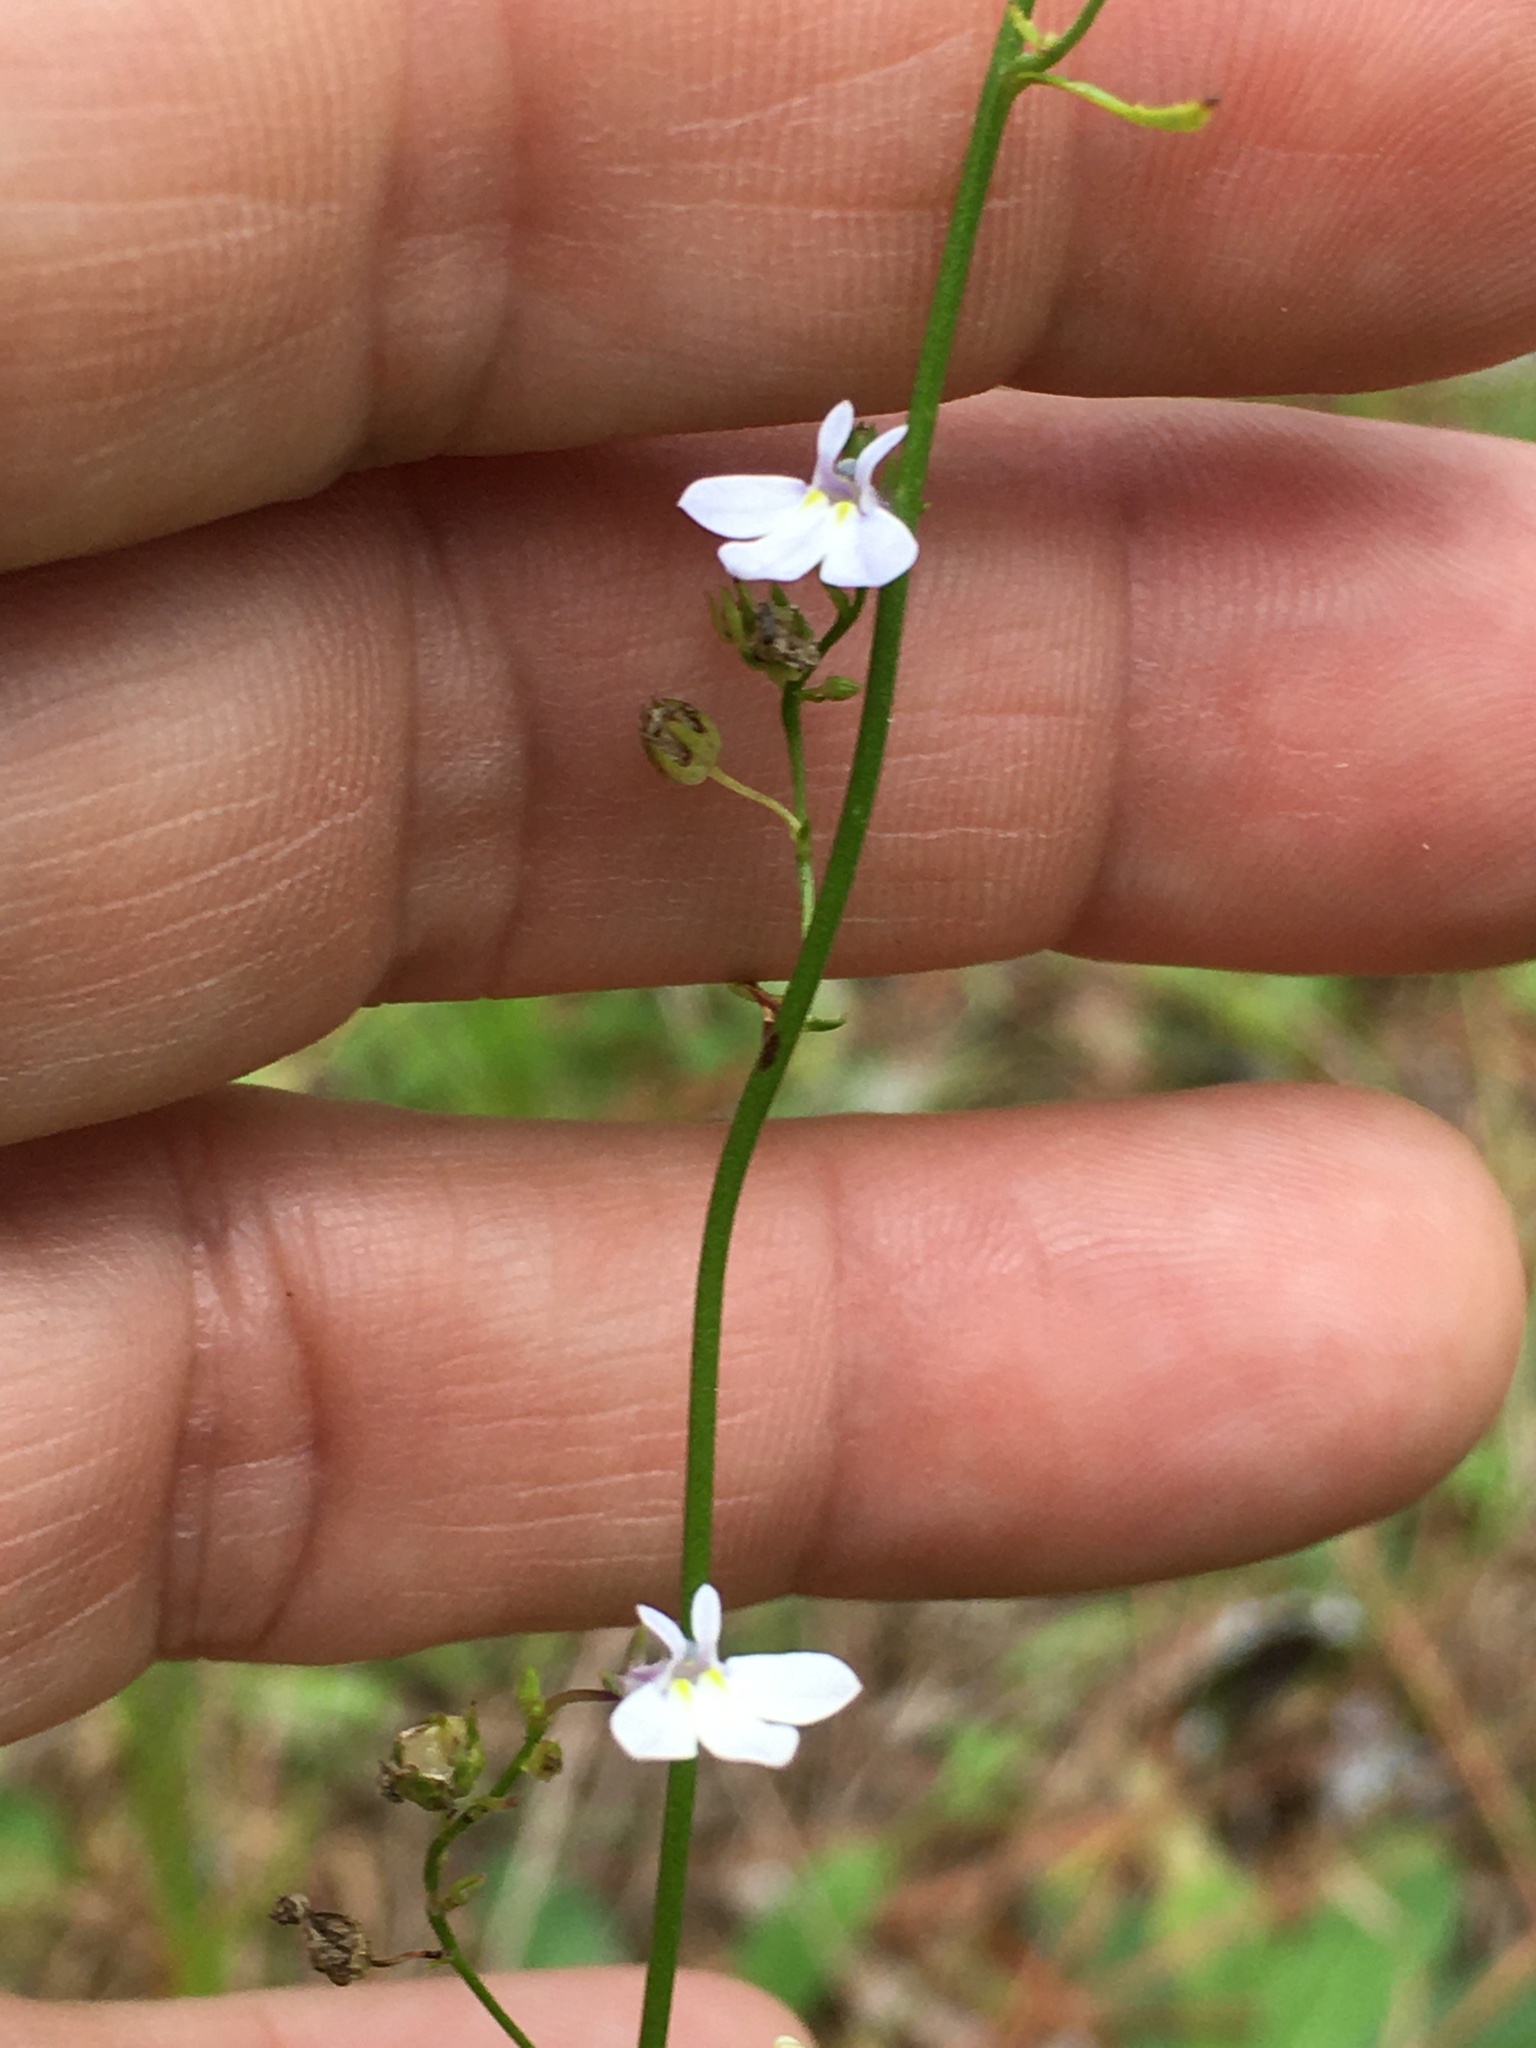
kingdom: Plantae
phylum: Tracheophyta
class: Magnoliopsida
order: Asterales
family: Campanulaceae
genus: Lobelia
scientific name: Lobelia nuttallii
